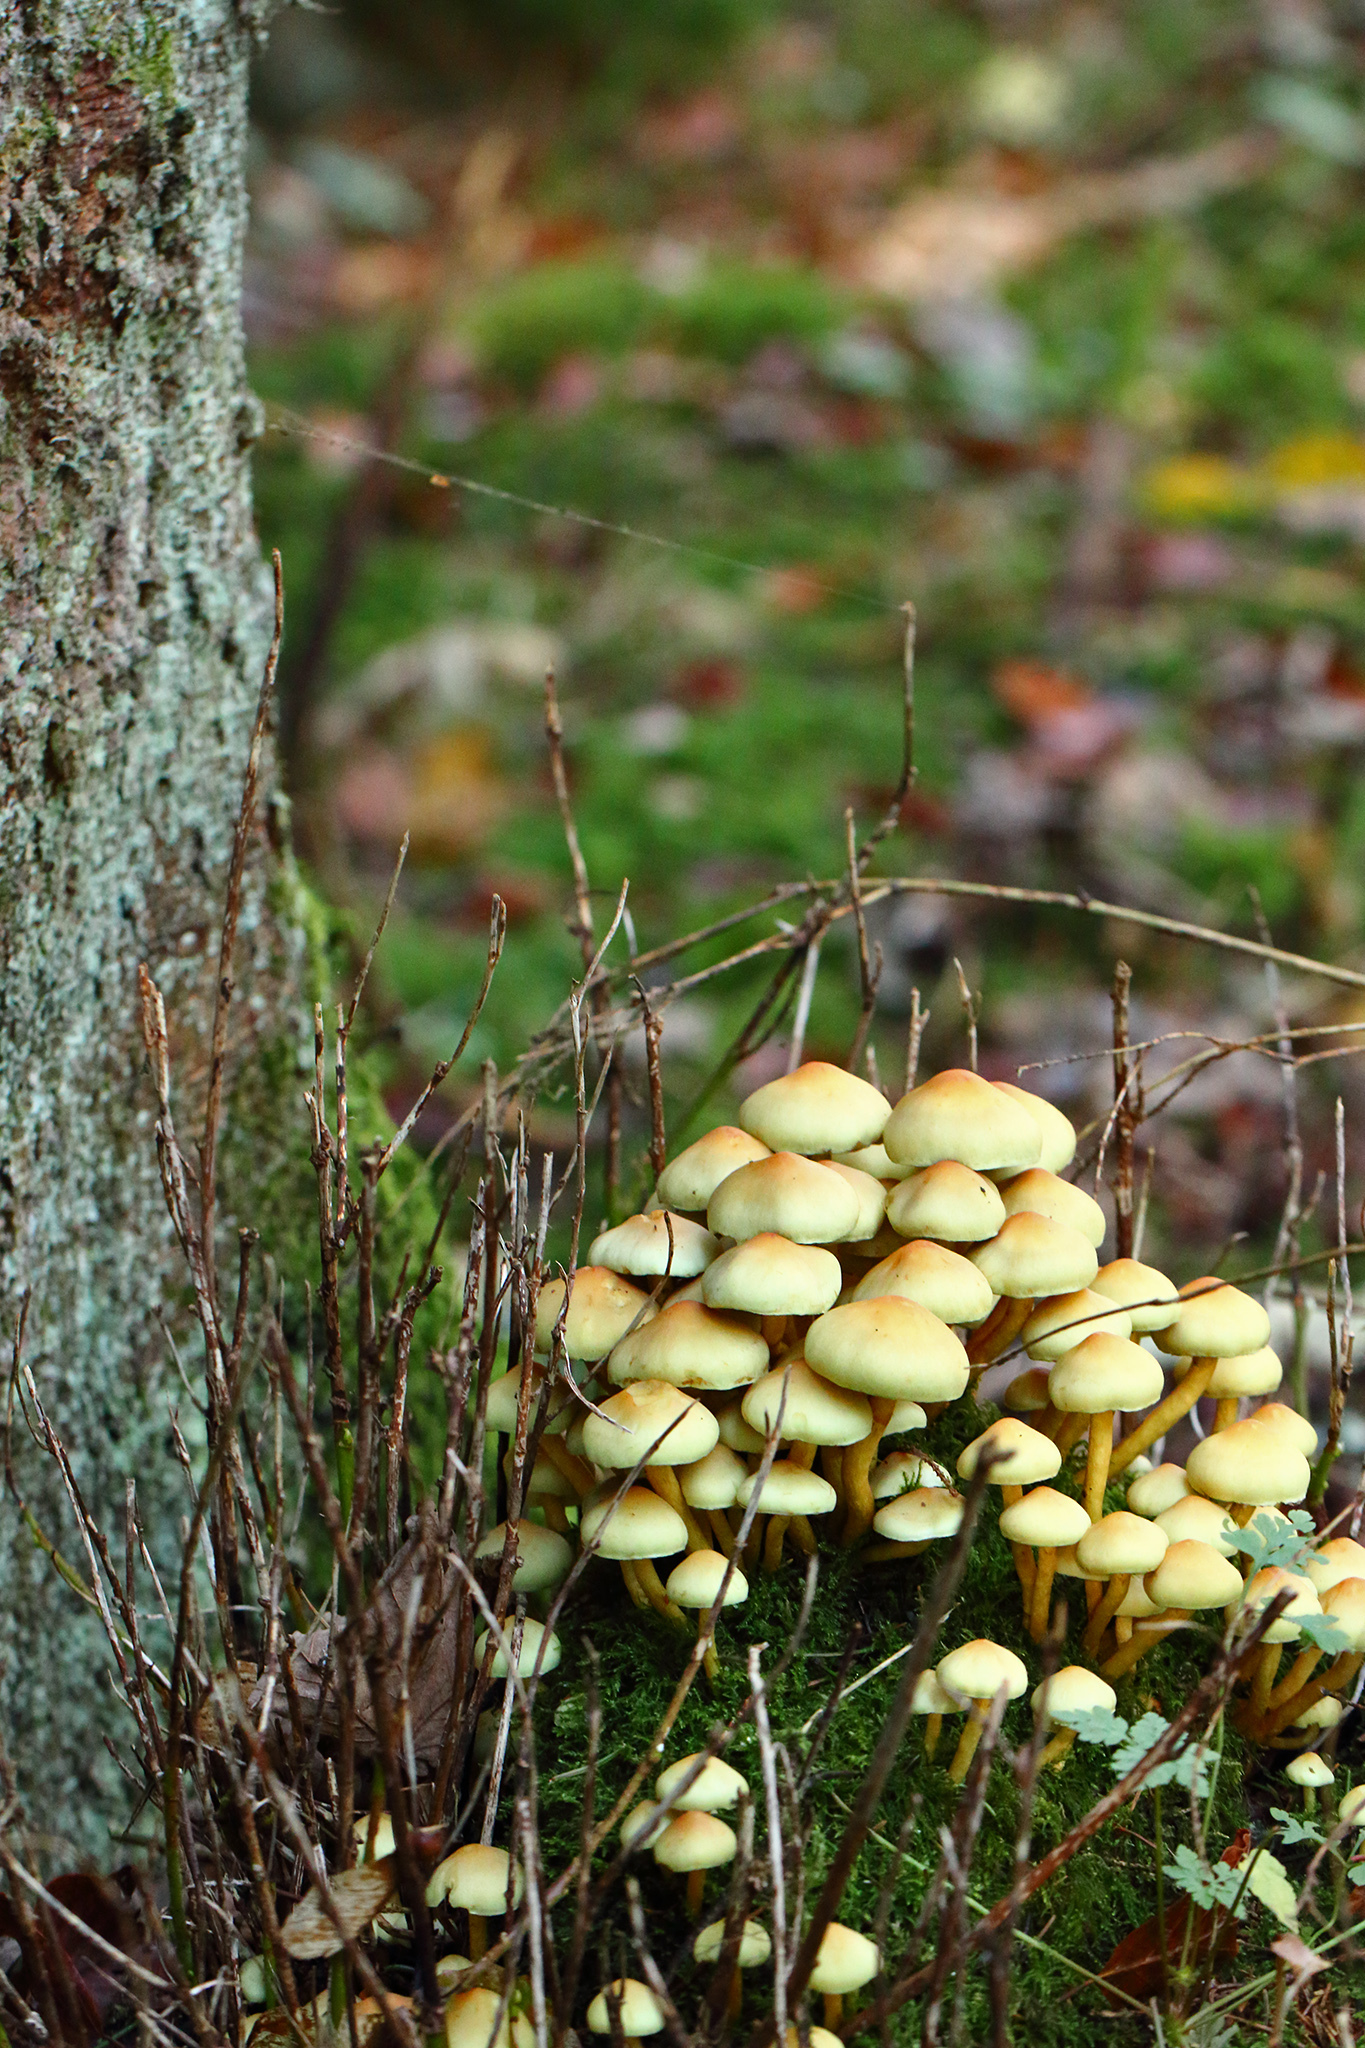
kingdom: Fungi
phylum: Basidiomycota
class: Agaricomycetes
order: Agaricales
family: Strophariaceae
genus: Hypholoma
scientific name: Hypholoma fasciculare
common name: Sulphur tuft
